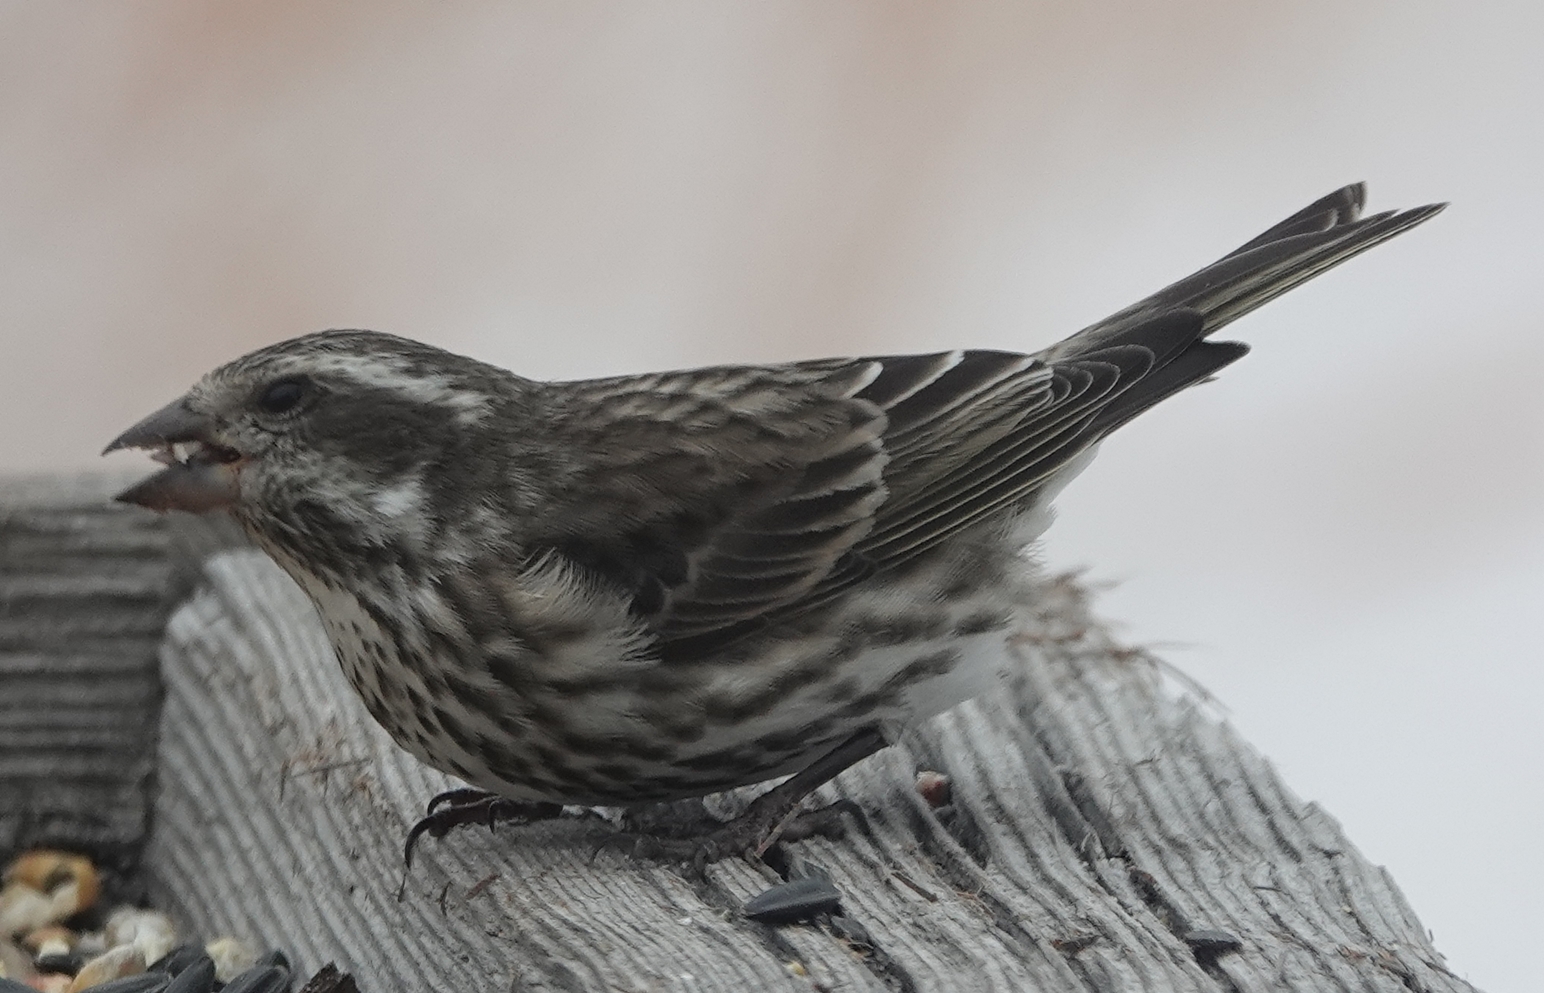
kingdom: Animalia
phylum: Chordata
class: Aves
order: Passeriformes
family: Fringillidae
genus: Haemorhous
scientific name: Haemorhous purpureus
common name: Purple finch
